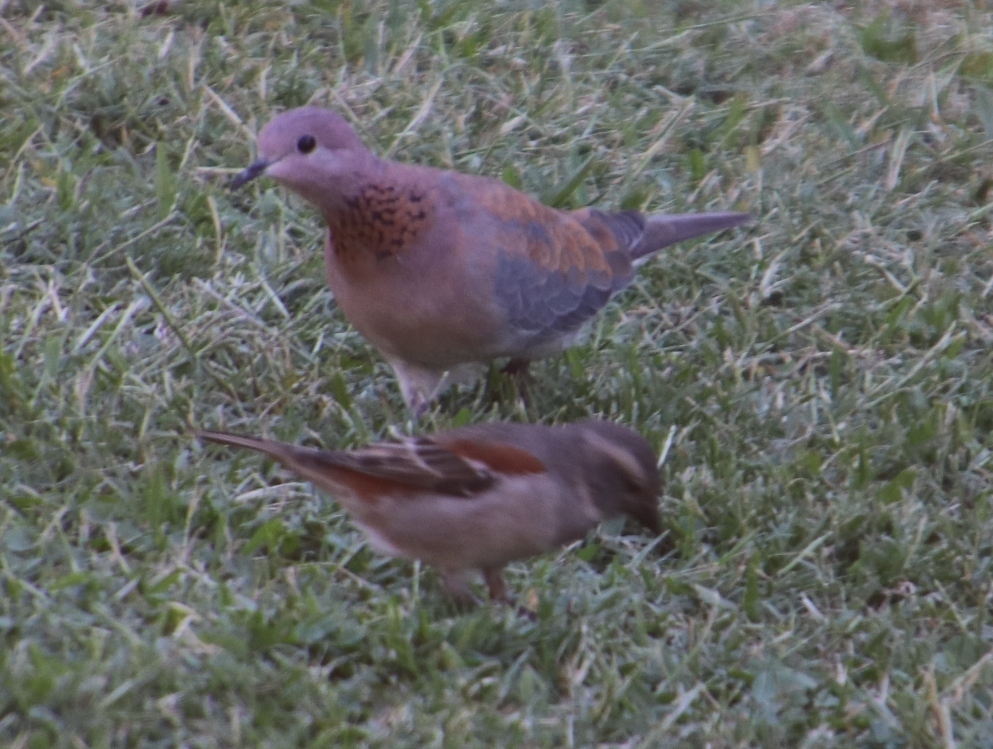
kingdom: Animalia
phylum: Chordata
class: Aves
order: Columbiformes
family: Columbidae
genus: Spilopelia
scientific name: Spilopelia senegalensis
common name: Laughing dove
